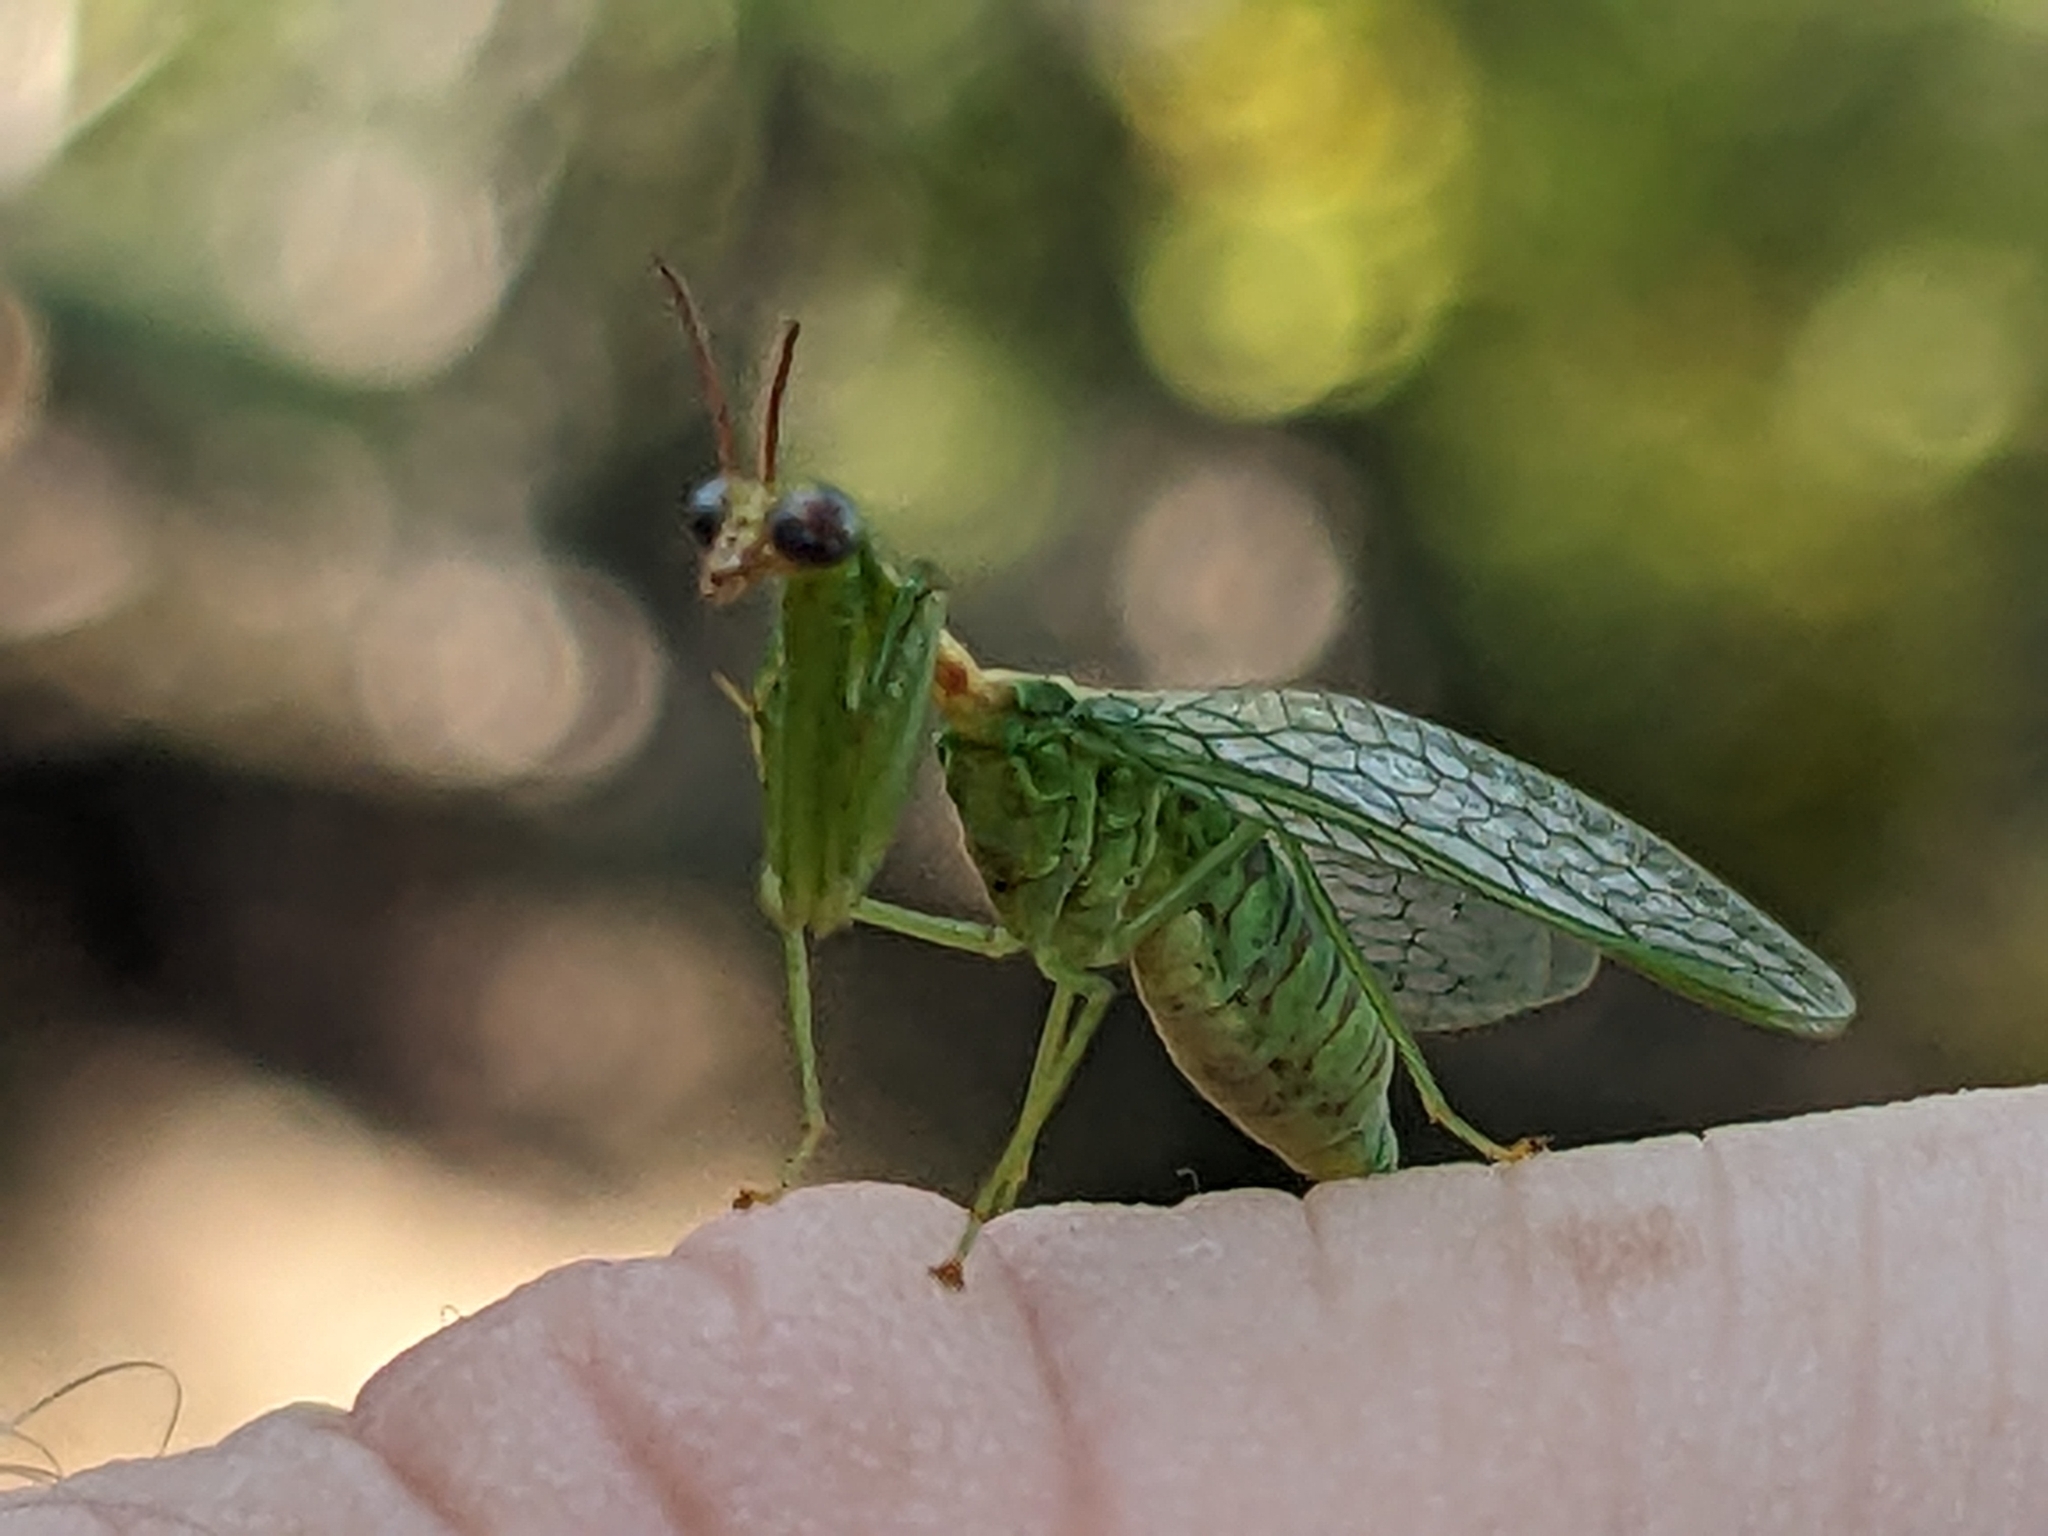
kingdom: Animalia
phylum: Arthropoda
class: Insecta
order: Neuroptera
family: Mantispidae
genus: Zeugomantispa
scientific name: Zeugomantispa minuta
